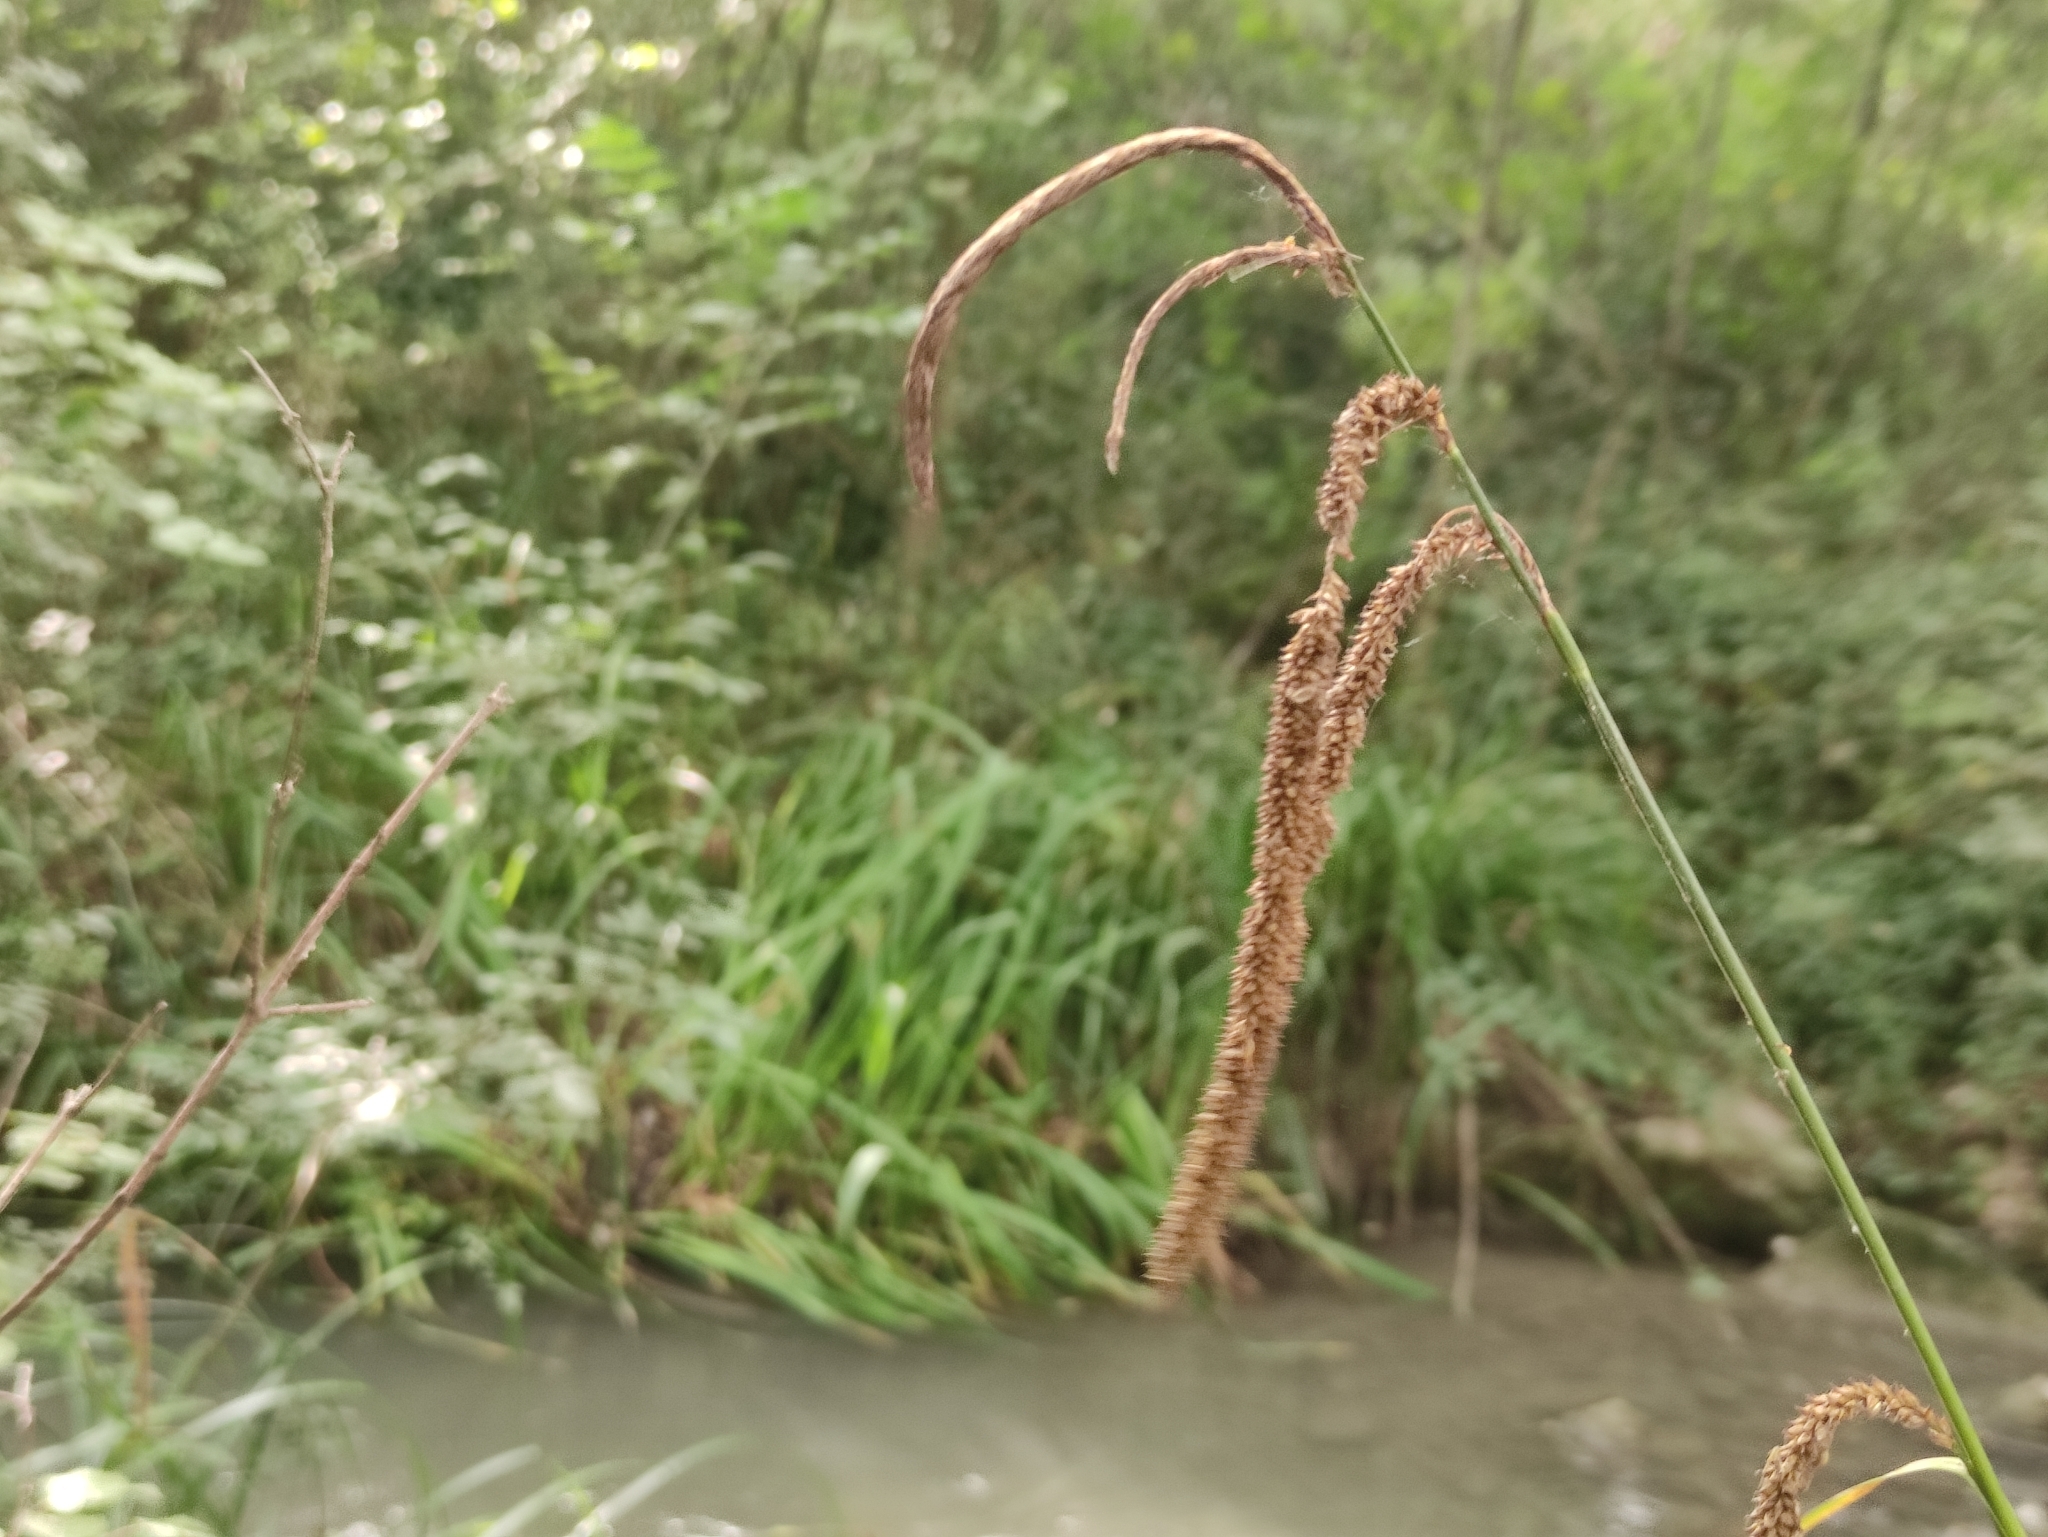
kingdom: Plantae
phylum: Tracheophyta
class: Liliopsida
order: Poales
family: Cyperaceae
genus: Carex
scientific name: Carex pendula
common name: Pendulous sedge
